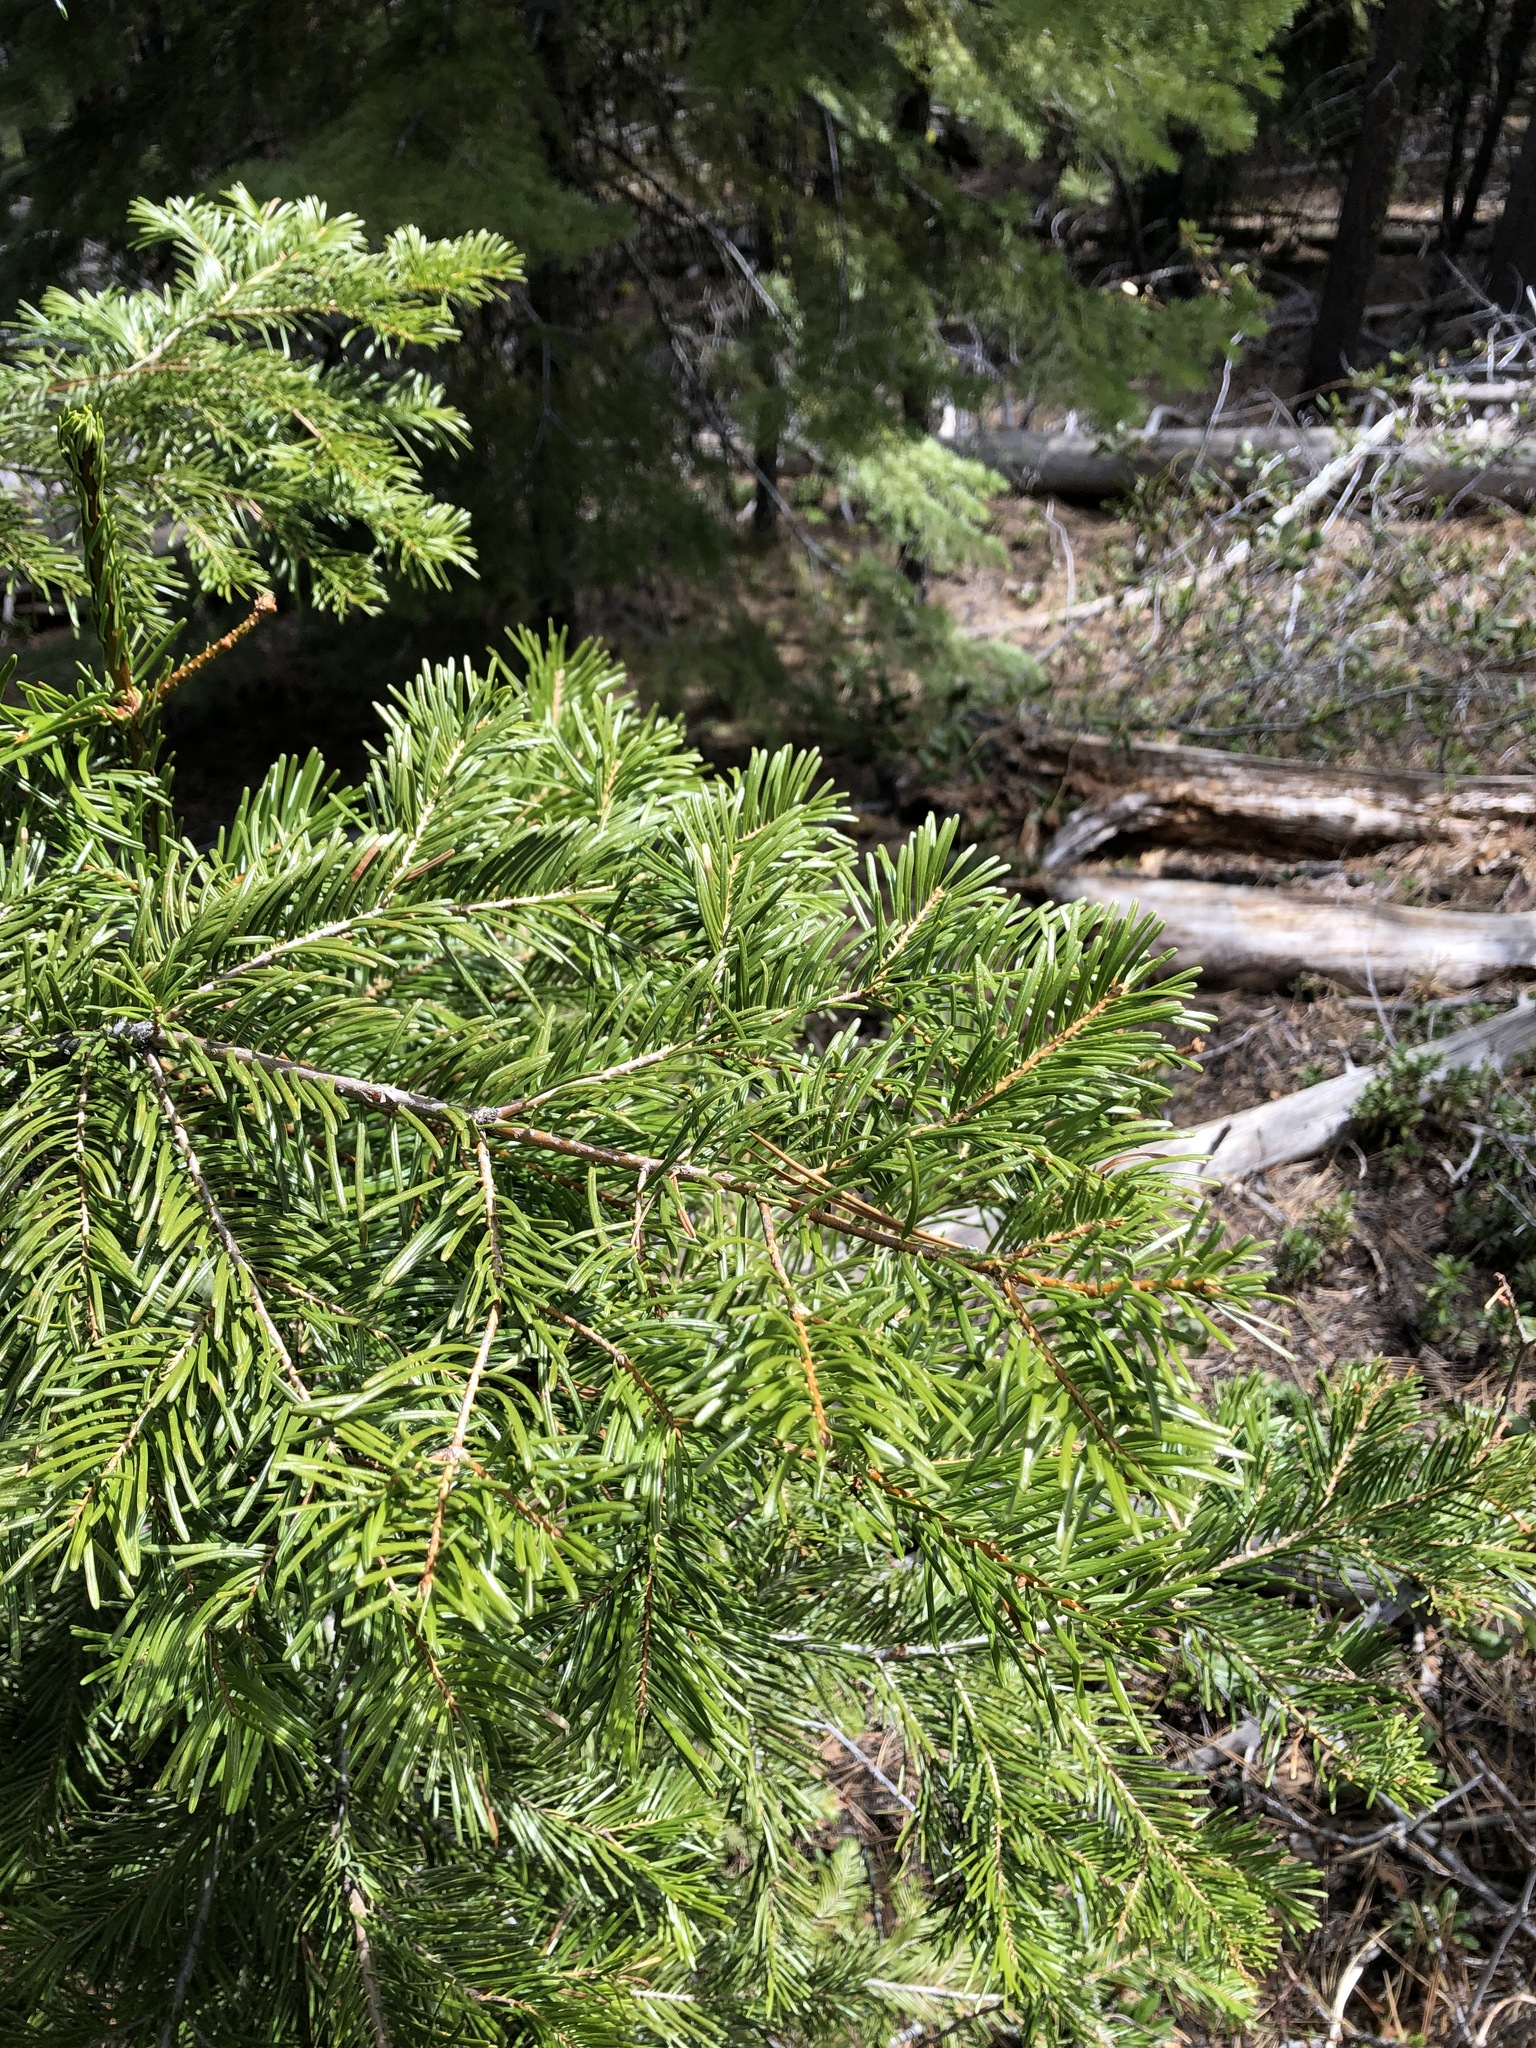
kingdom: Plantae
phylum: Tracheophyta
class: Pinopsida
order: Pinales
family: Pinaceae
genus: Abies
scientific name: Abies grandis
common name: Giant fir
